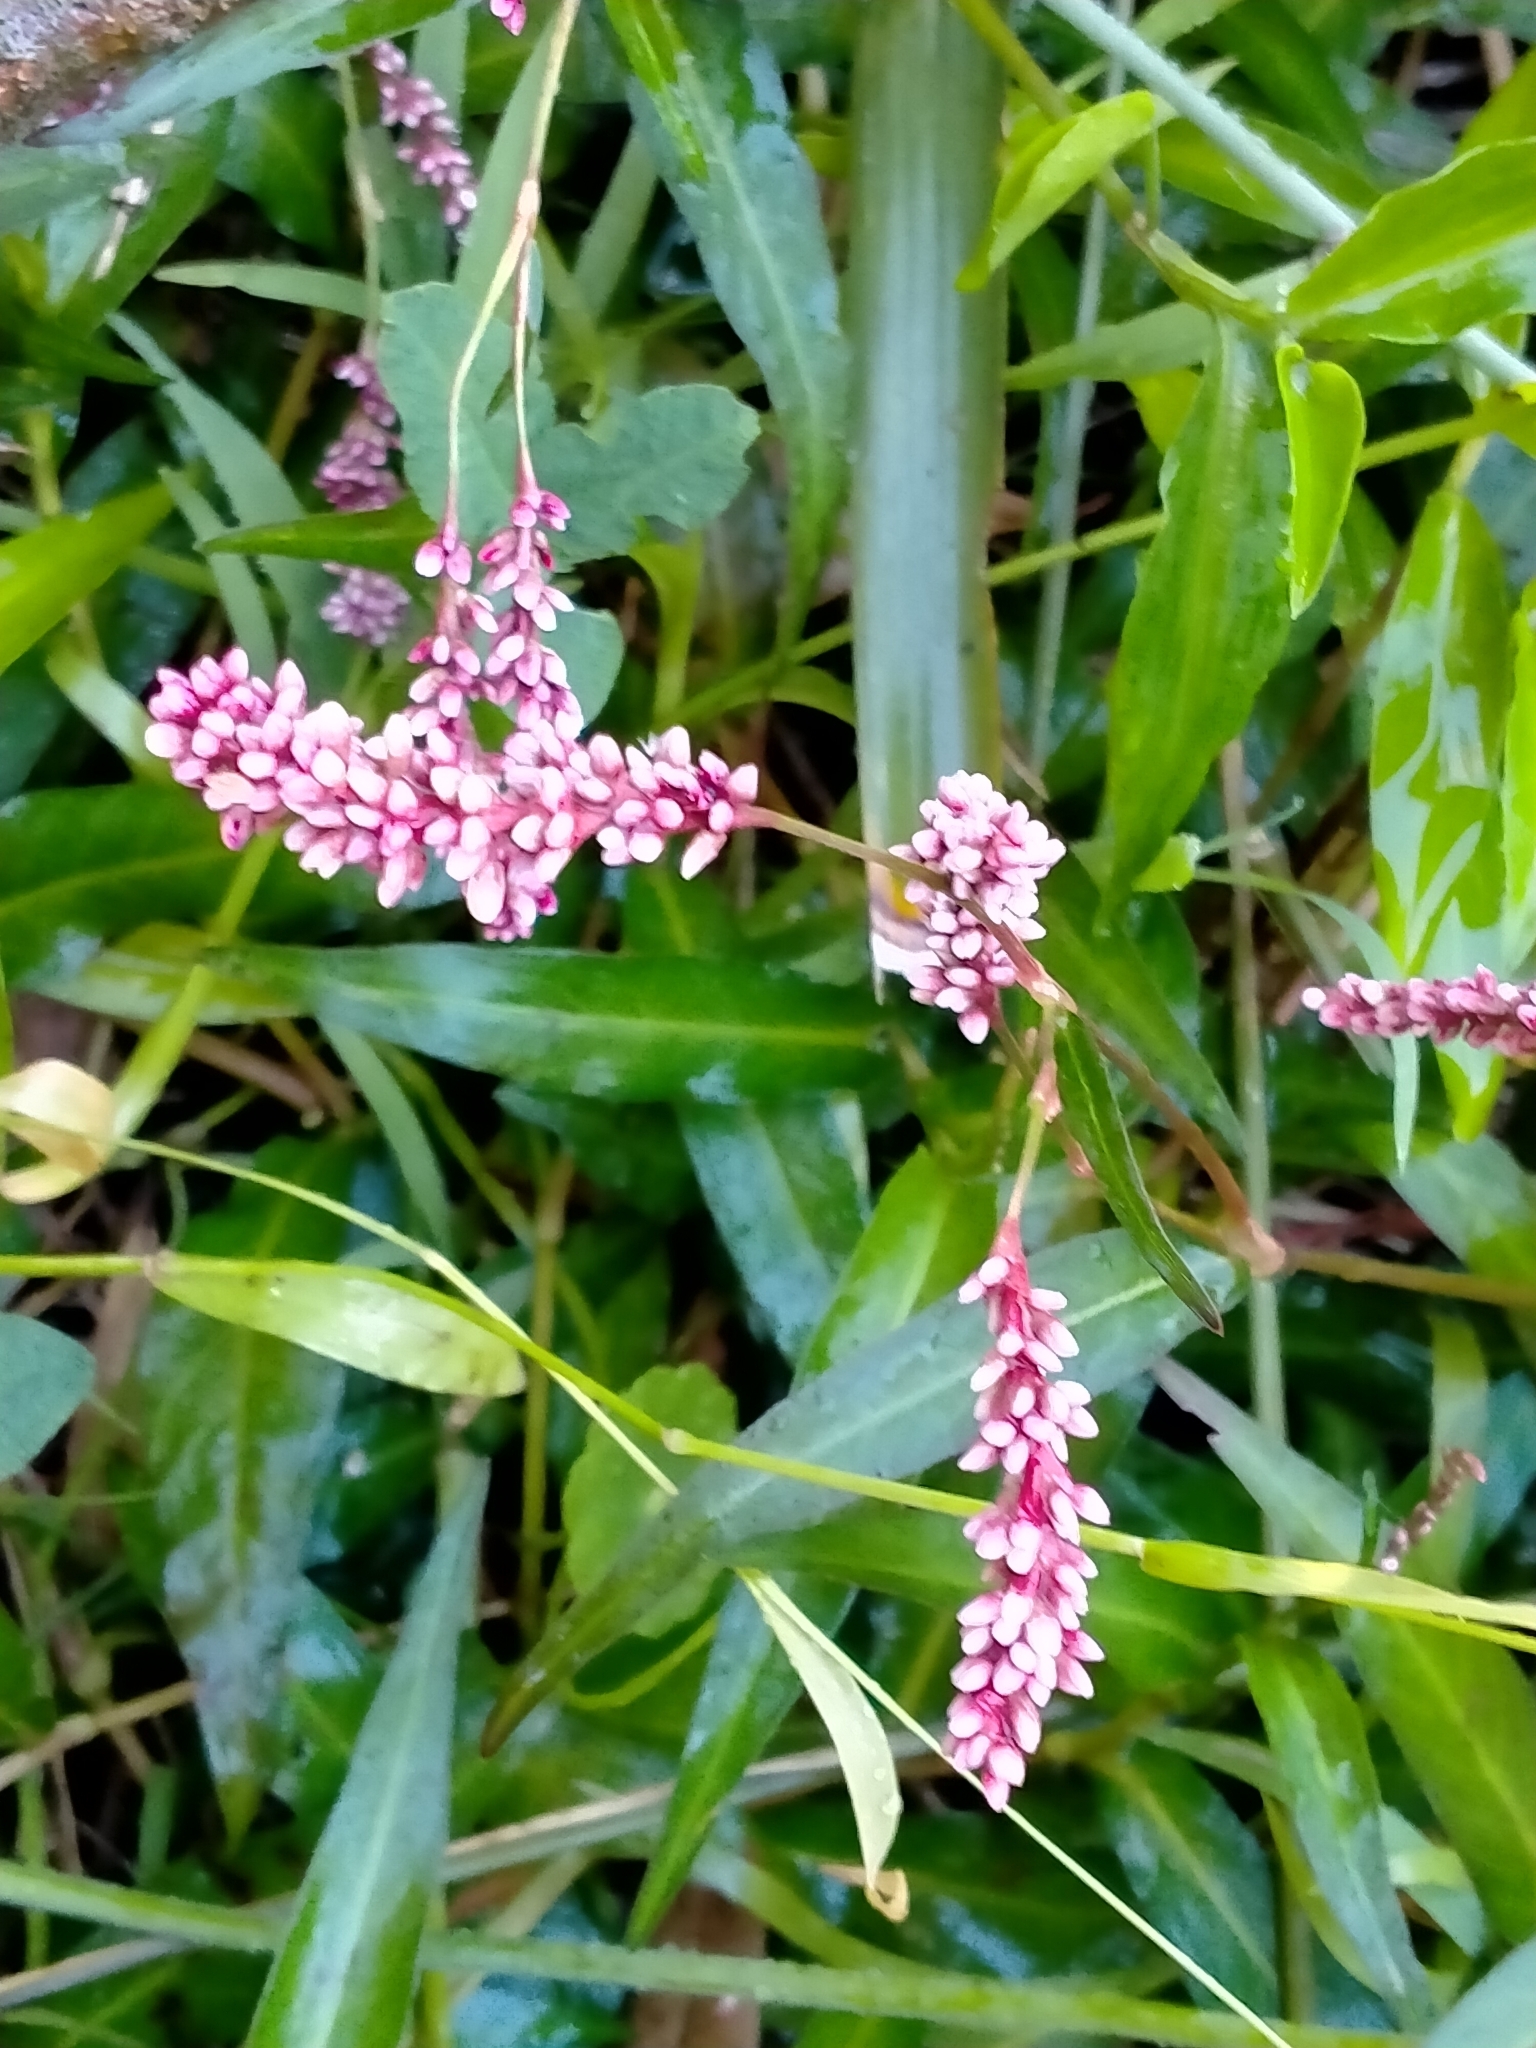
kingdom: Plantae
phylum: Tracheophyta
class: Magnoliopsida
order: Caryophyllales
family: Polygonaceae
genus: Persicaria
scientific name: Persicaria decipiens
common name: Willow-weed
